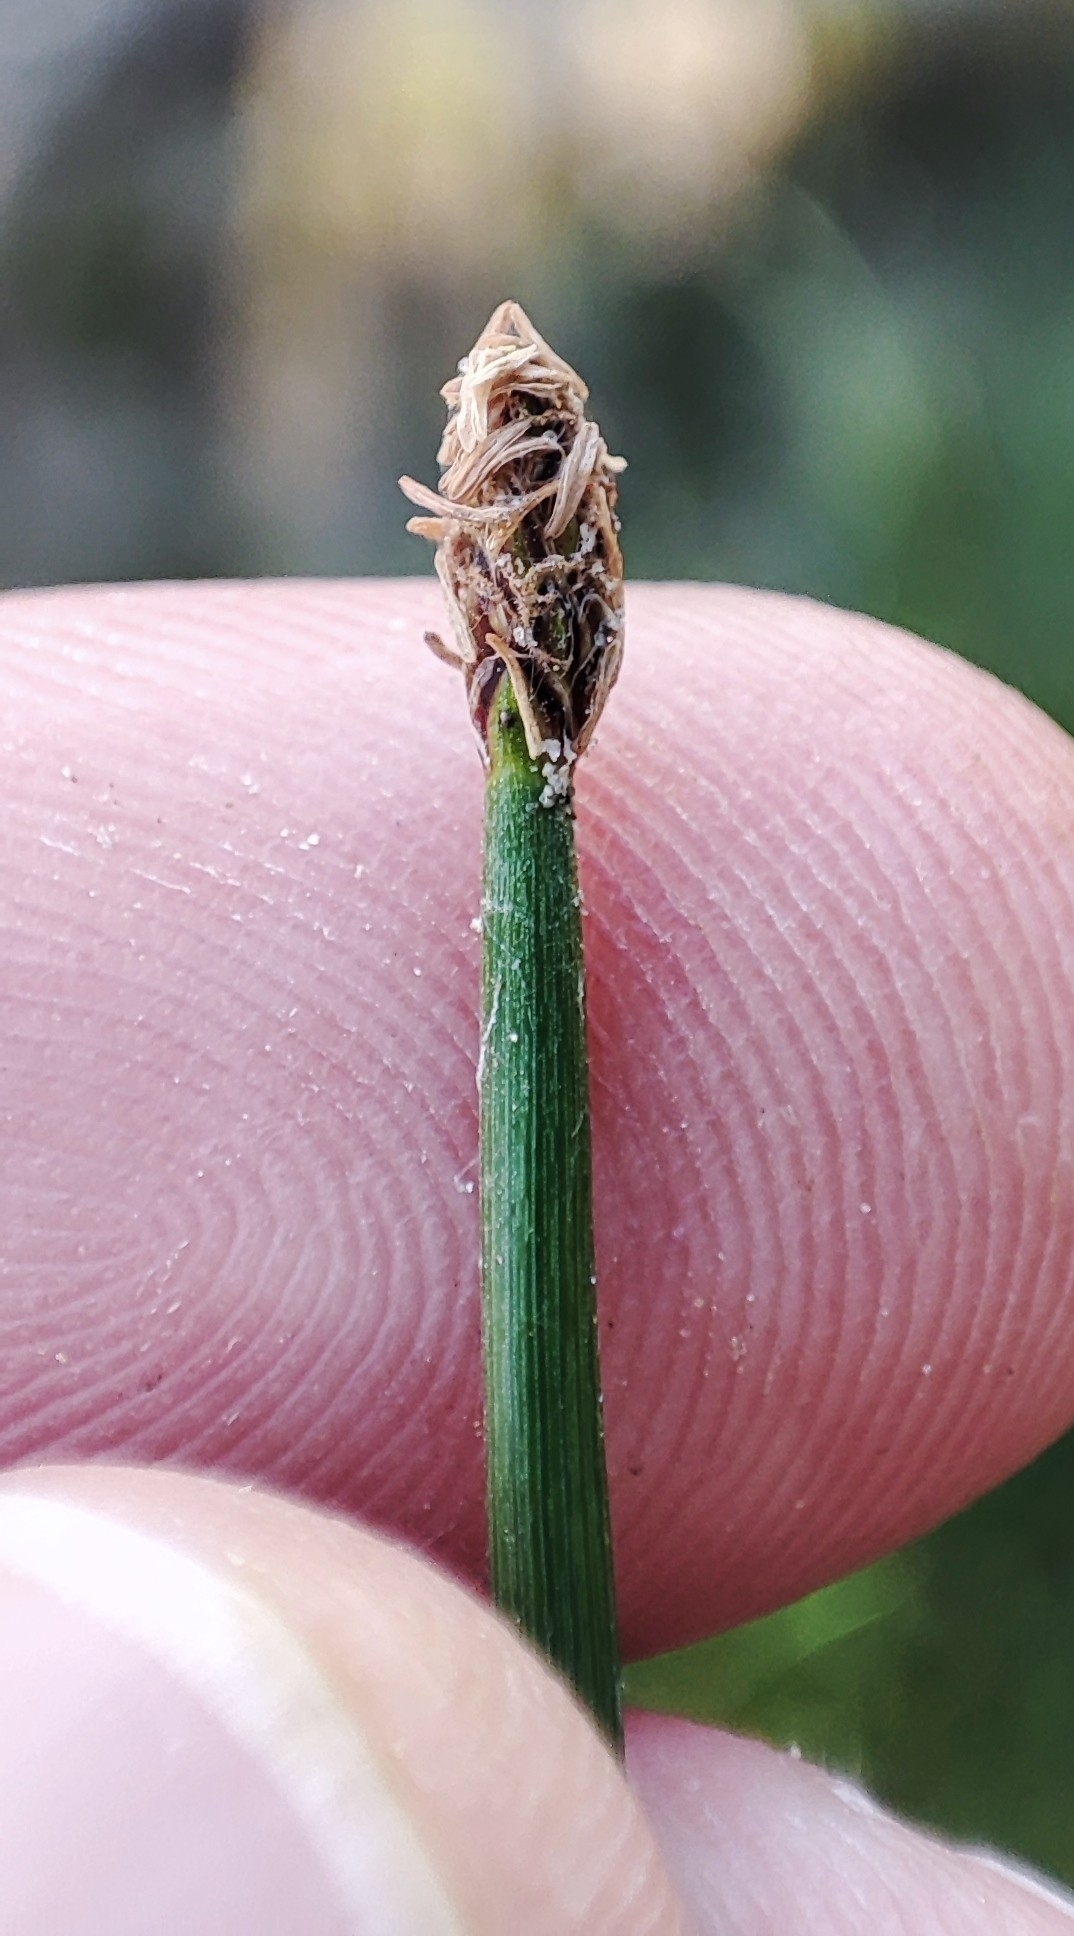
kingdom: Plantae
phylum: Tracheophyta
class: Liliopsida
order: Poales
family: Cyperaceae
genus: Eleocharis
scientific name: Eleocharis palustris
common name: Common spike-rush
